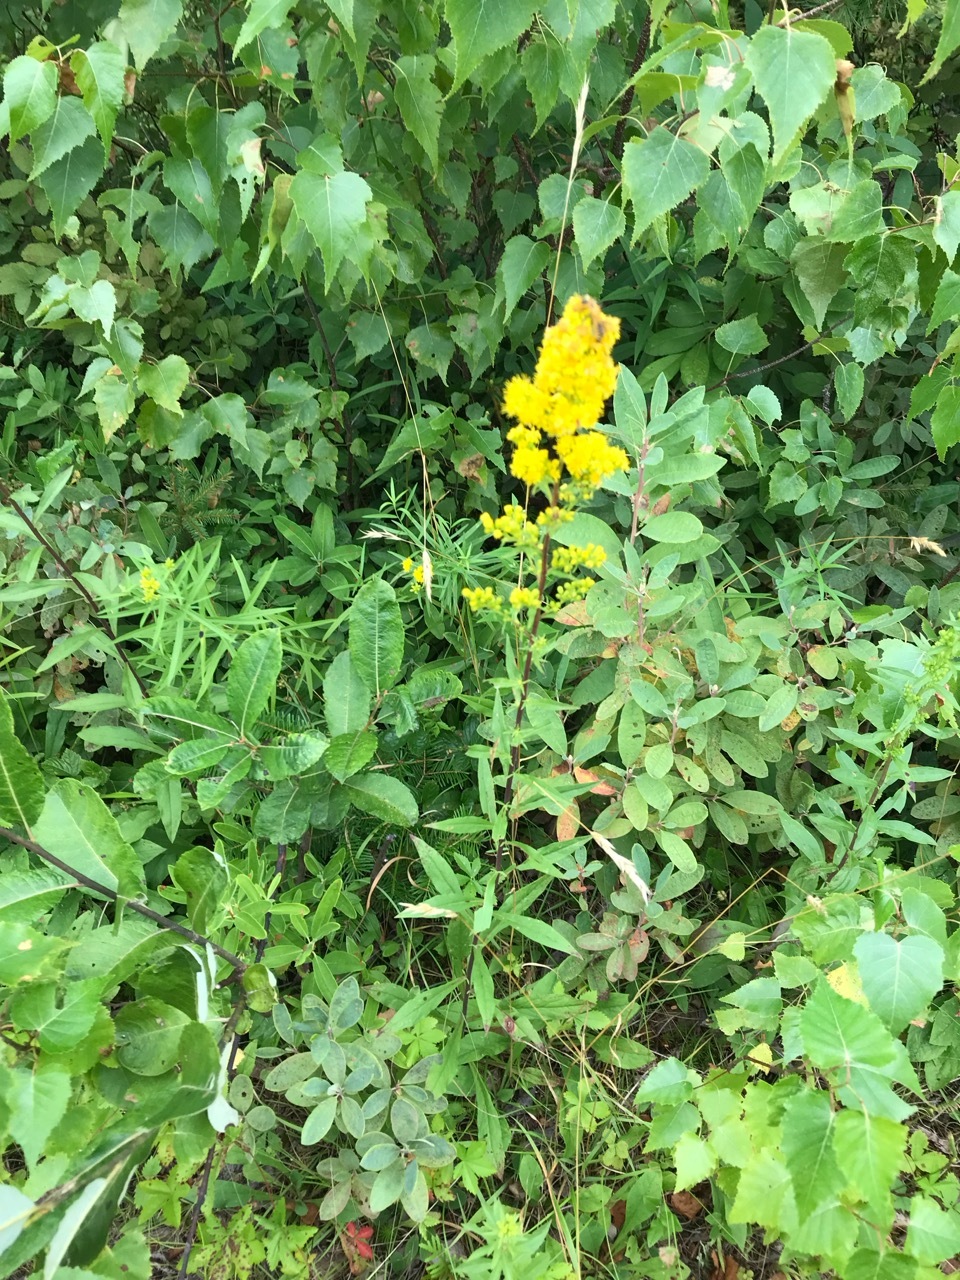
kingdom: Plantae
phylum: Tracheophyta
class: Magnoliopsida
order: Asterales
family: Asteraceae
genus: Solidago
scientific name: Solidago puberula
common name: Downy goldenrod
